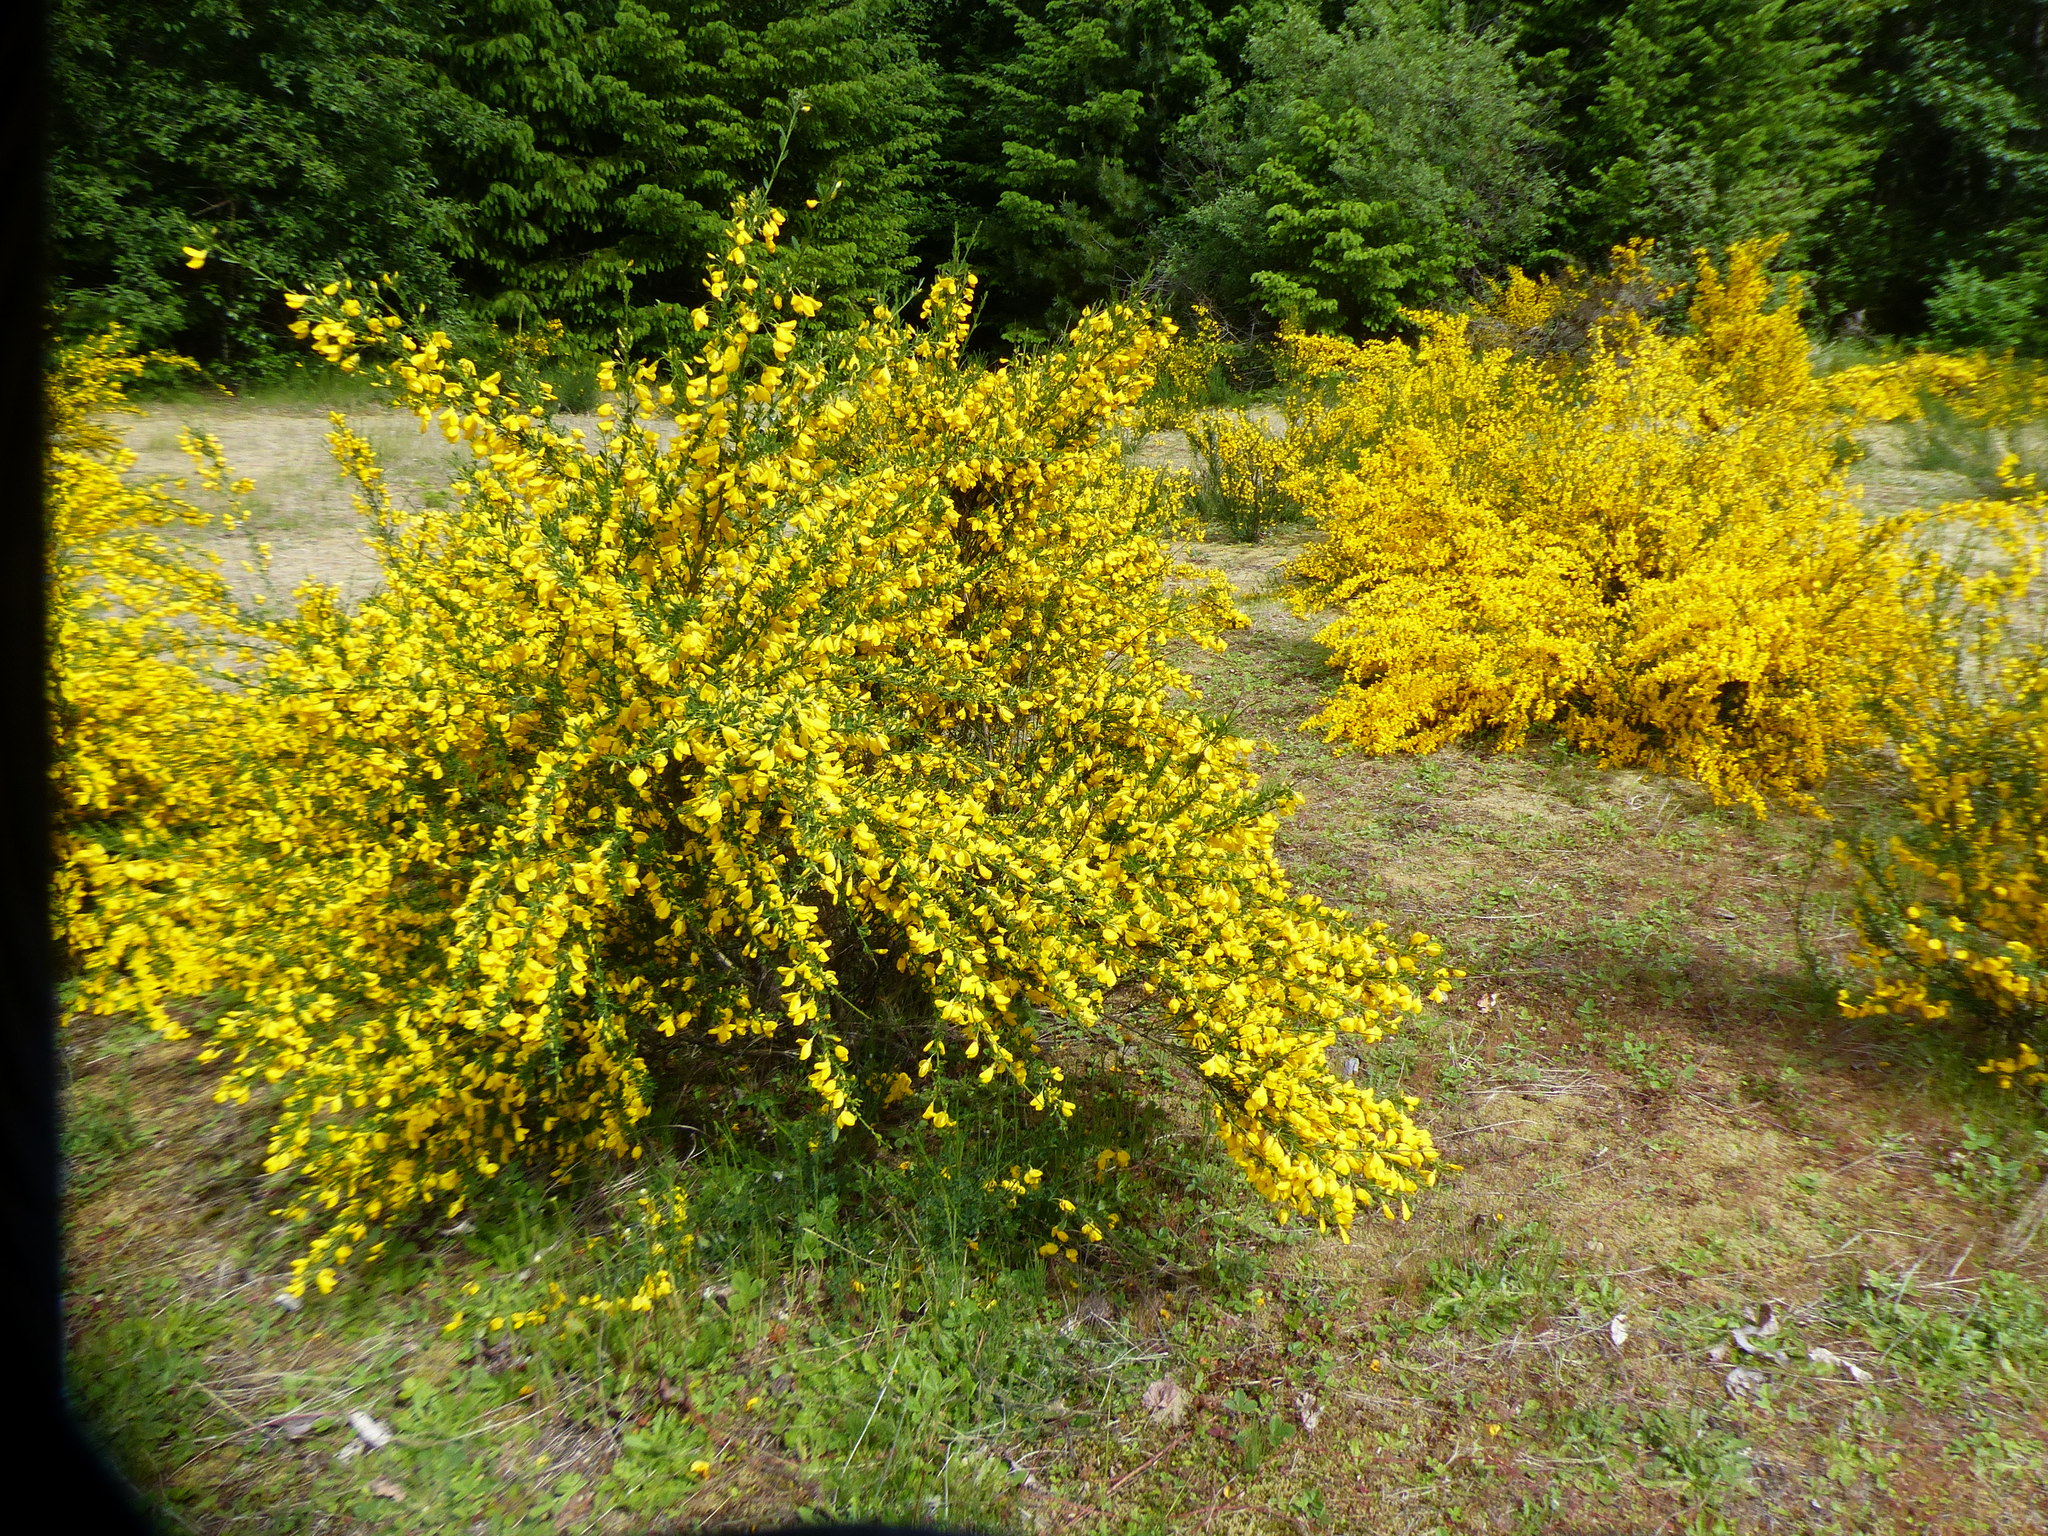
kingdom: Plantae
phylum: Tracheophyta
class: Magnoliopsida
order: Fabales
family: Fabaceae
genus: Cytisus
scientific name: Cytisus scoparius
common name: Scotch broom
